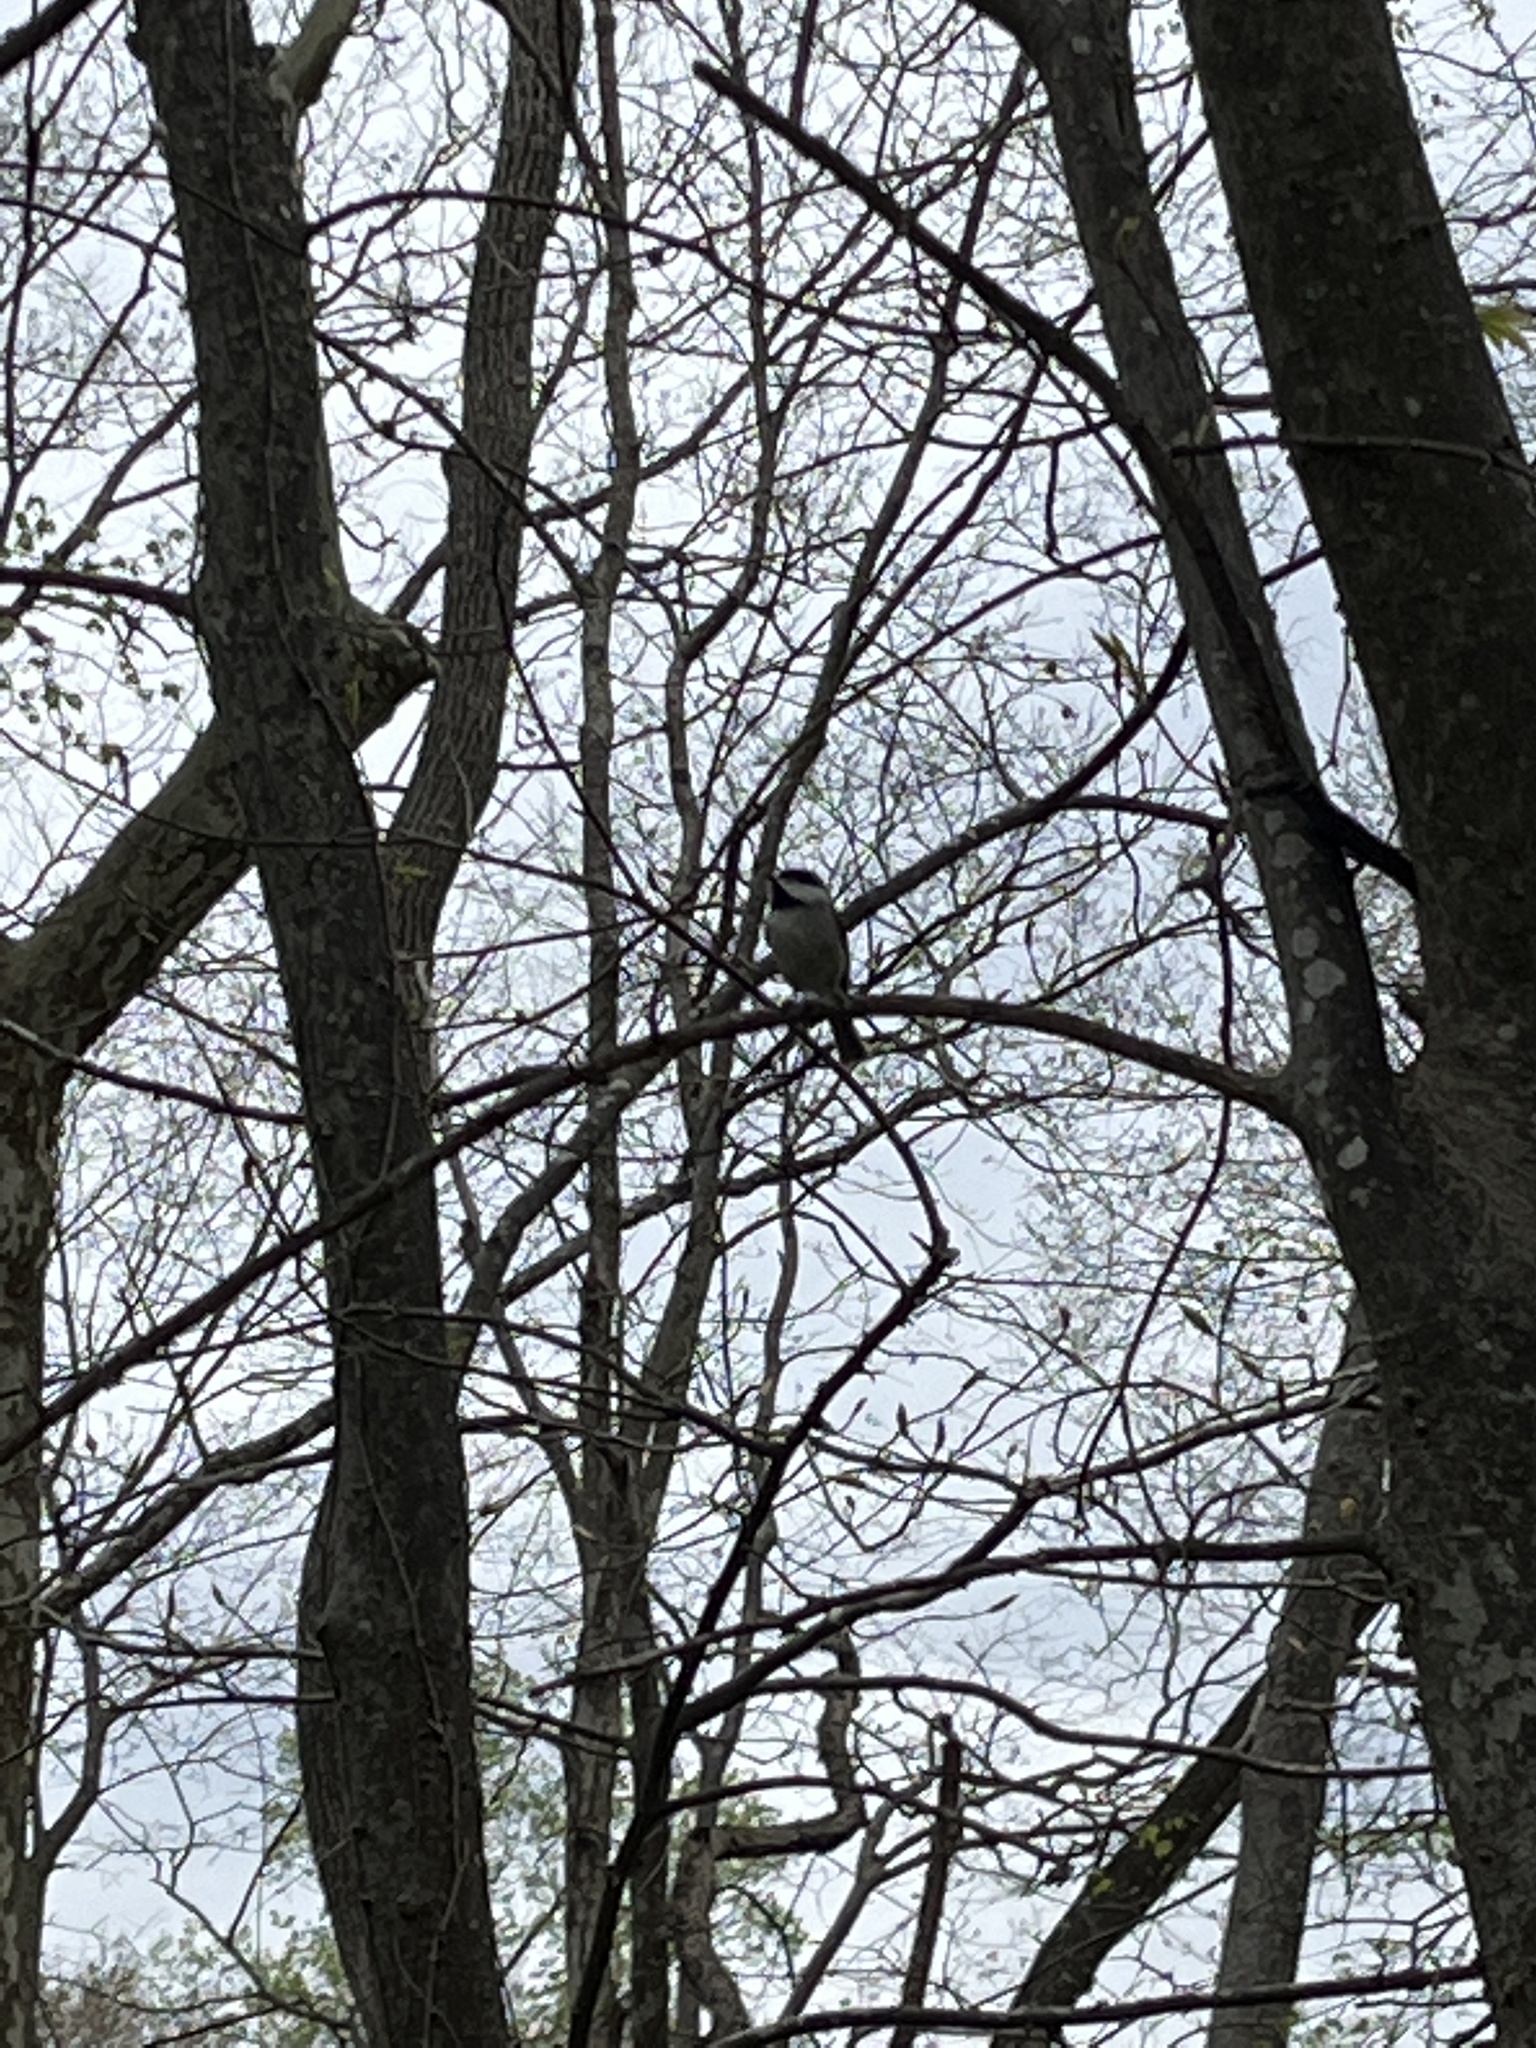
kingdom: Animalia
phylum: Chordata
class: Aves
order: Passeriformes
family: Paridae
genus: Poecile
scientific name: Poecile carolinensis
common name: Carolina chickadee
